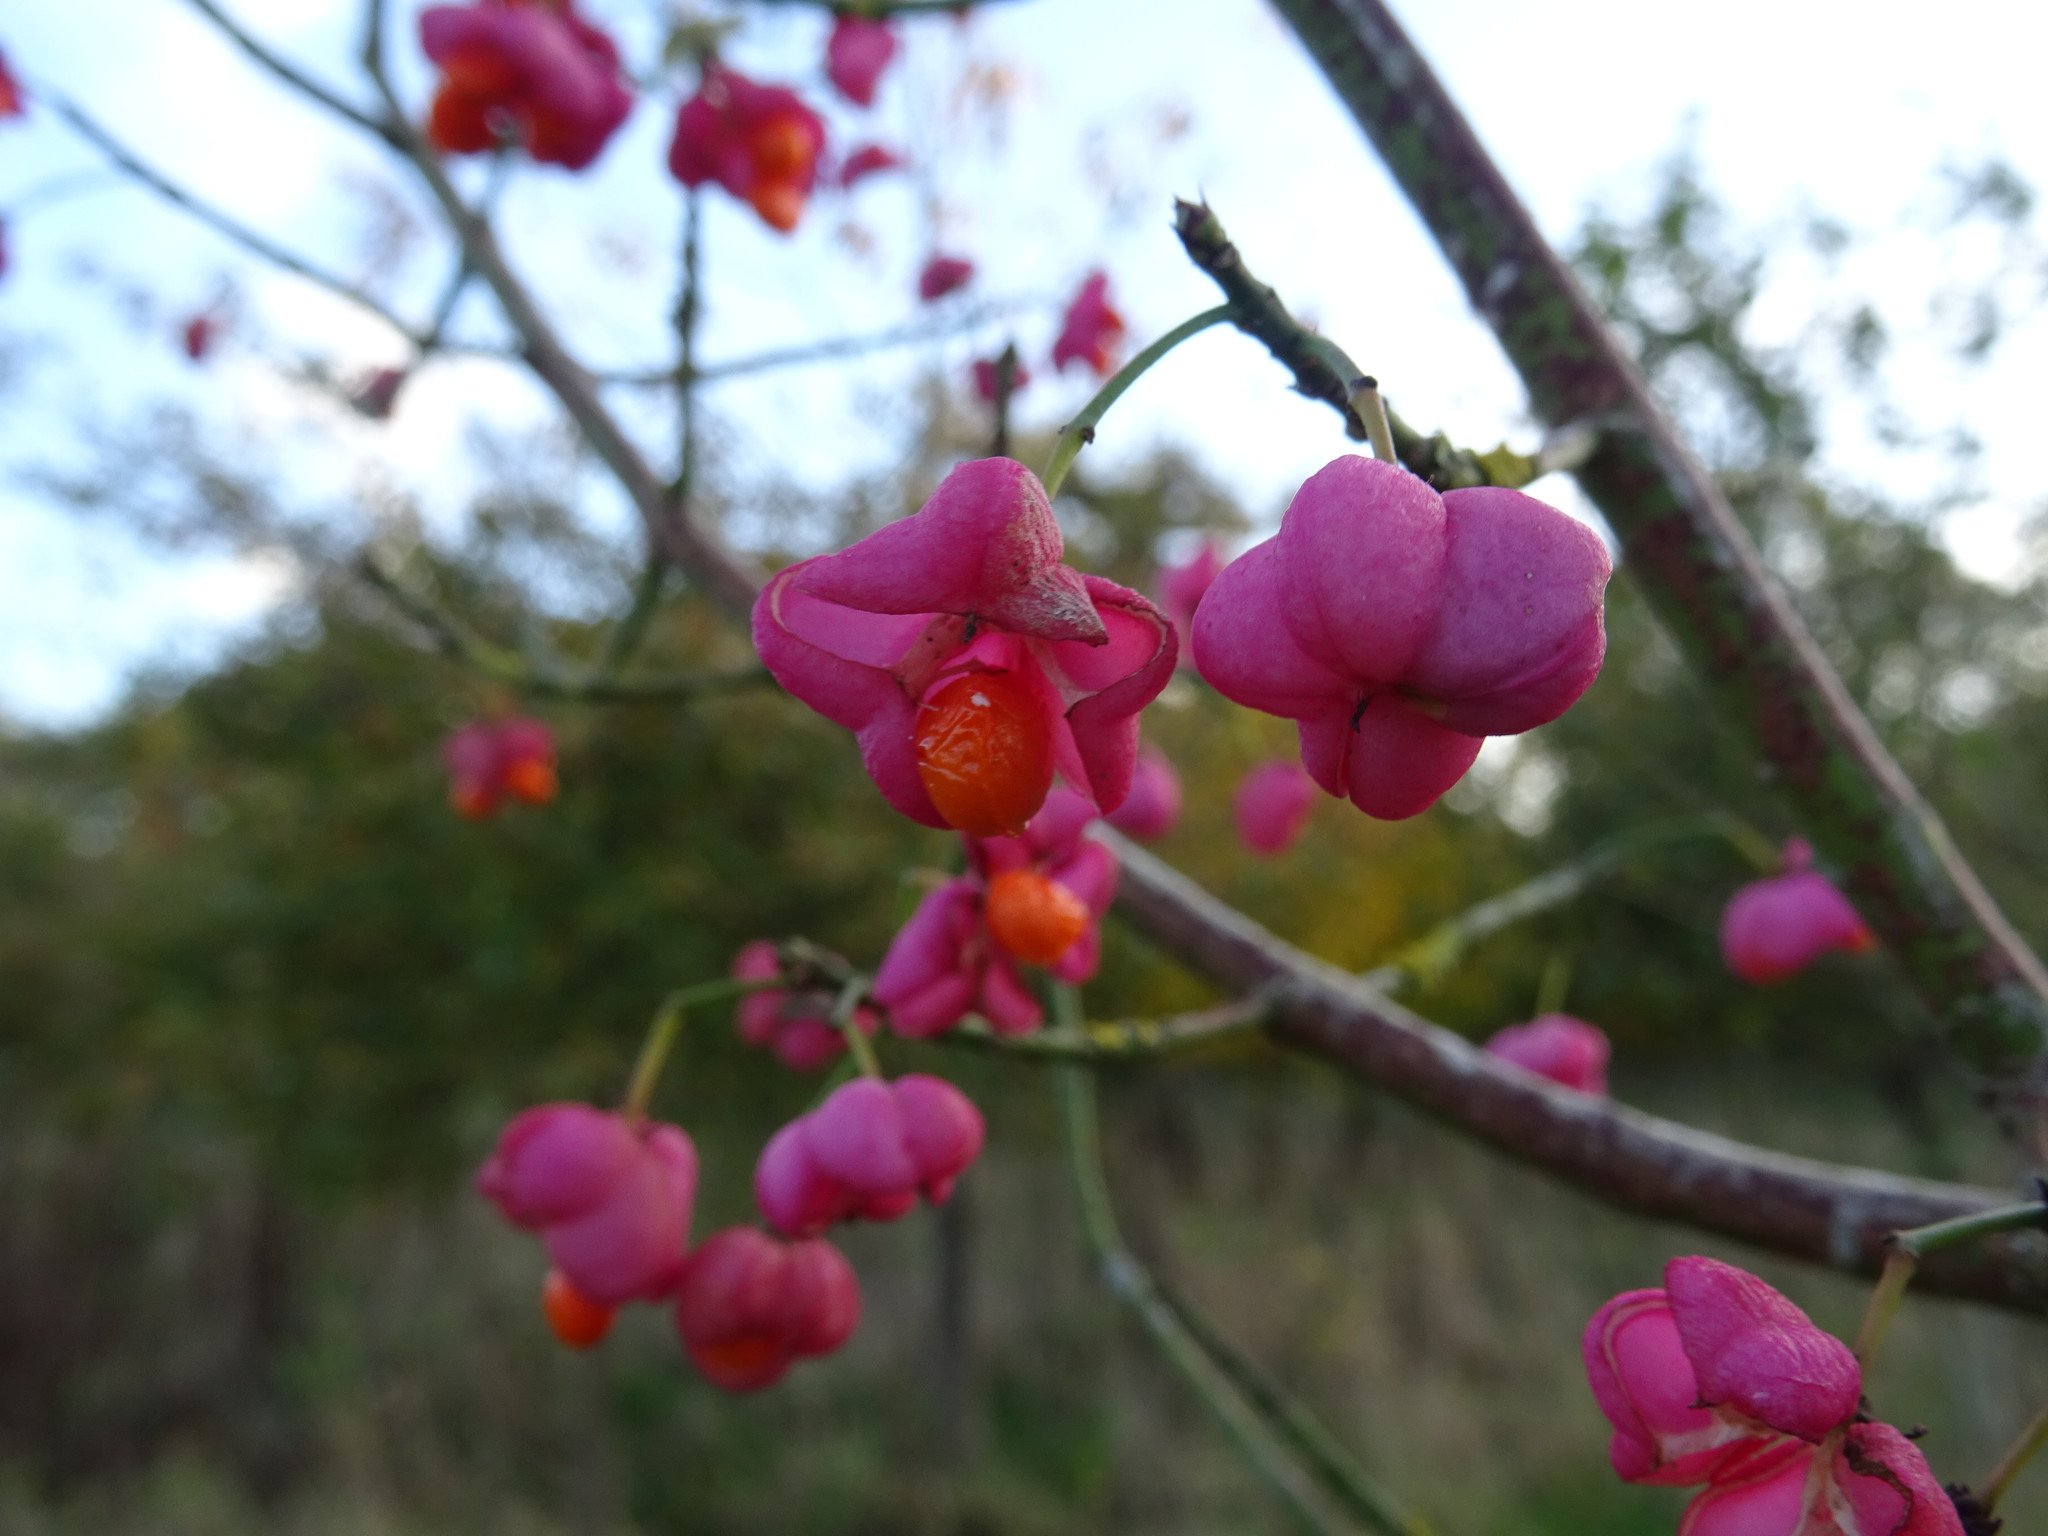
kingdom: Plantae
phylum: Tracheophyta
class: Magnoliopsida
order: Celastrales
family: Celastraceae
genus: Euonymus
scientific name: Euonymus europaeus
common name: Spindle
